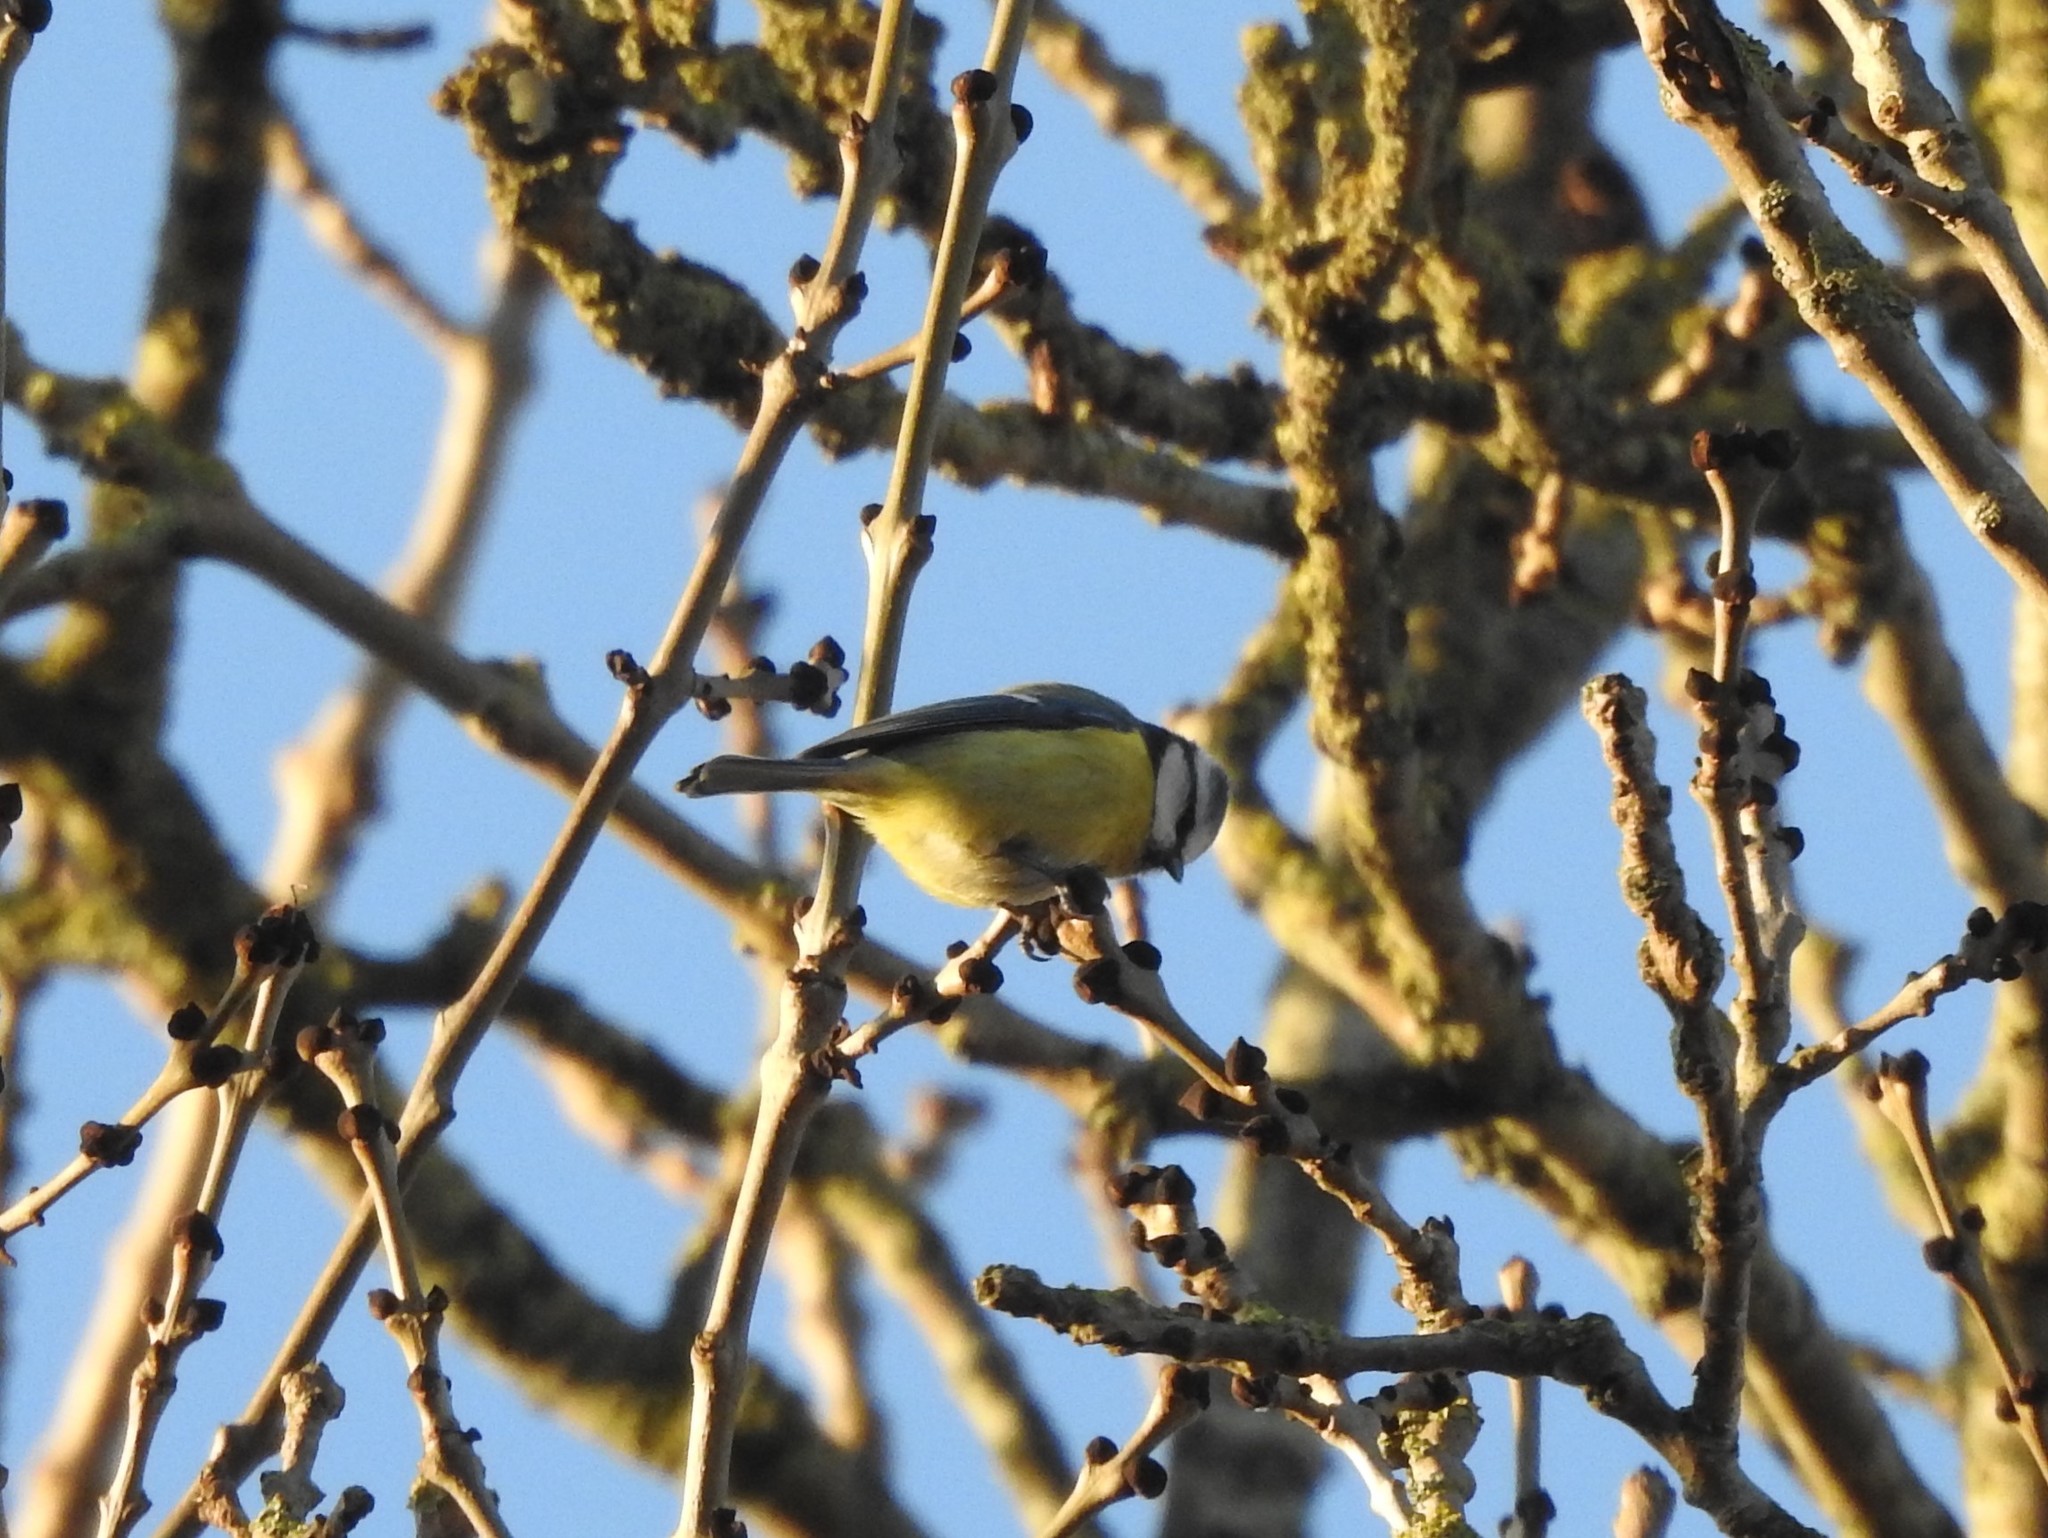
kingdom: Animalia
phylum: Chordata
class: Aves
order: Passeriformes
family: Paridae
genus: Cyanistes
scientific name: Cyanistes caeruleus
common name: Eurasian blue tit
